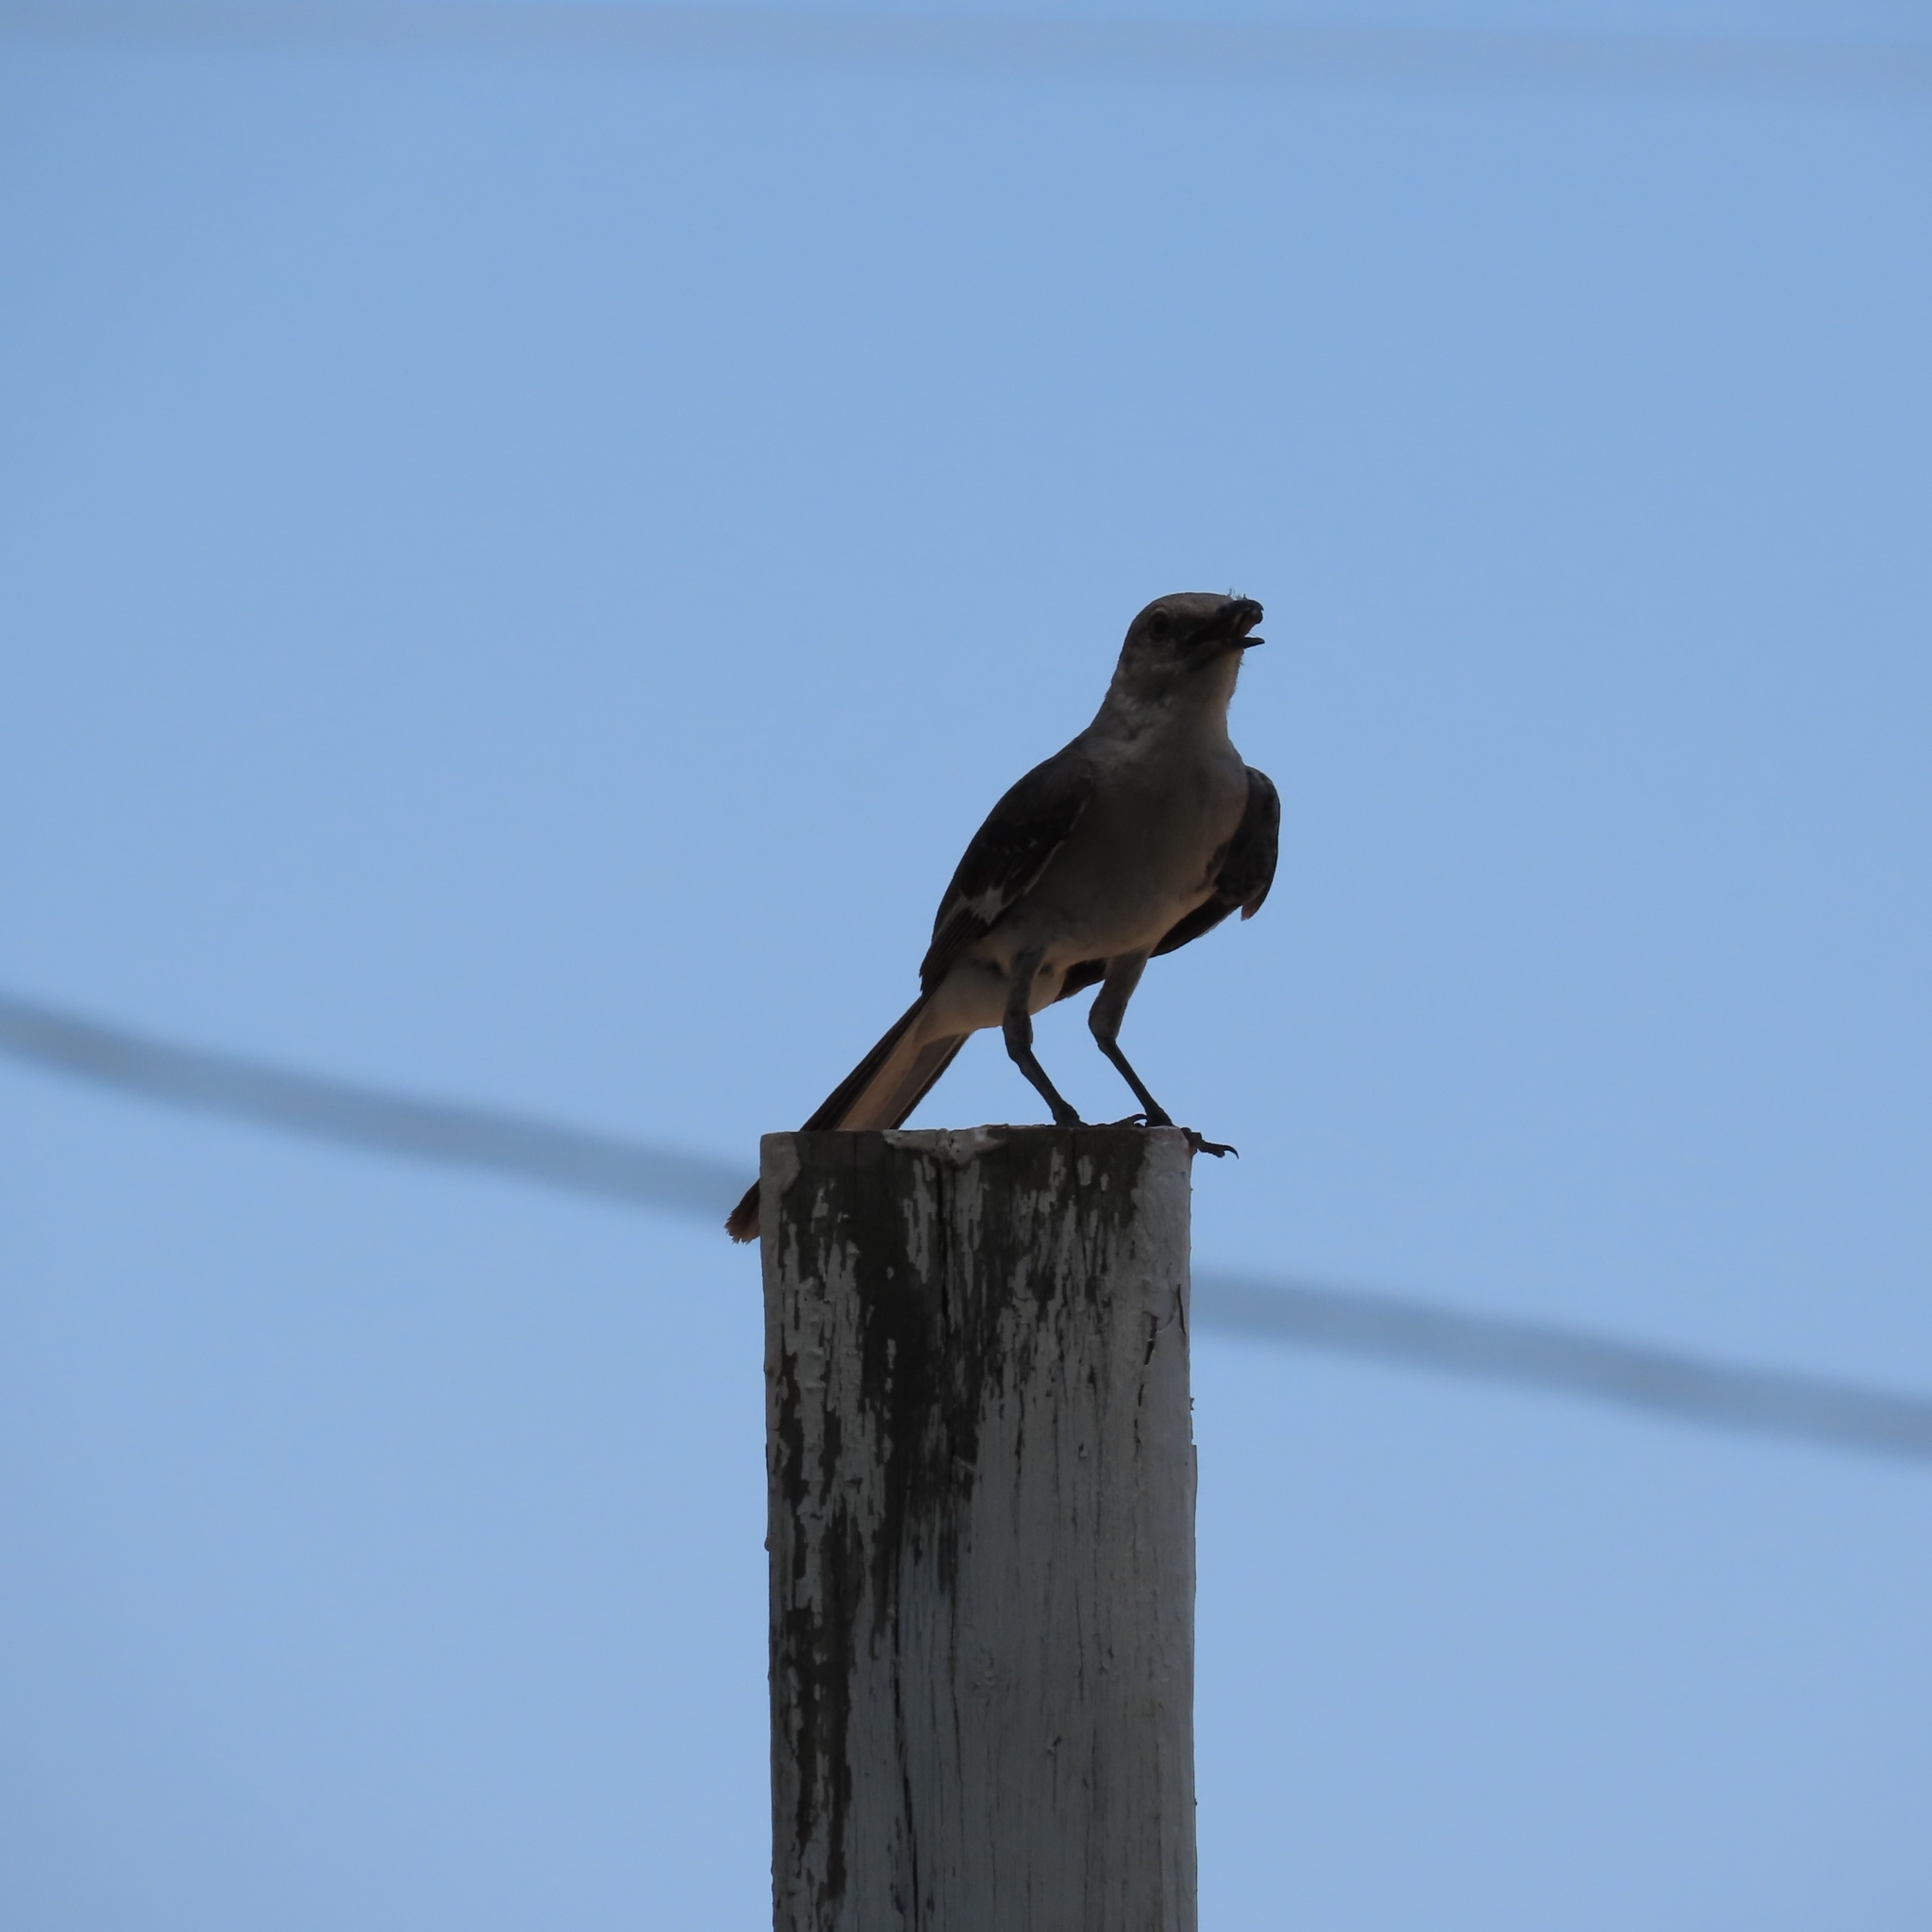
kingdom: Animalia
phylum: Chordata
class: Aves
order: Passeriformes
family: Mimidae
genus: Mimus
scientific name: Mimus polyglottos
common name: Northern mockingbird
